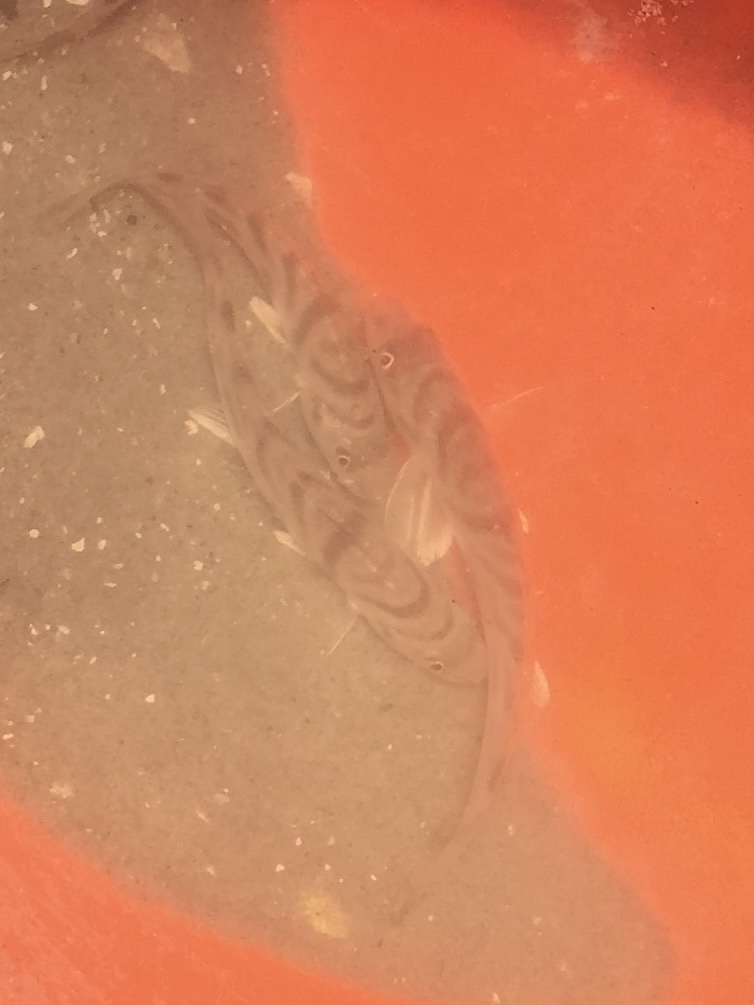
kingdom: Animalia
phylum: Chordata
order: Perciformes
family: Sciaenidae
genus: Menticirrhus
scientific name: Menticirrhus saxatilis
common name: Kingfish
